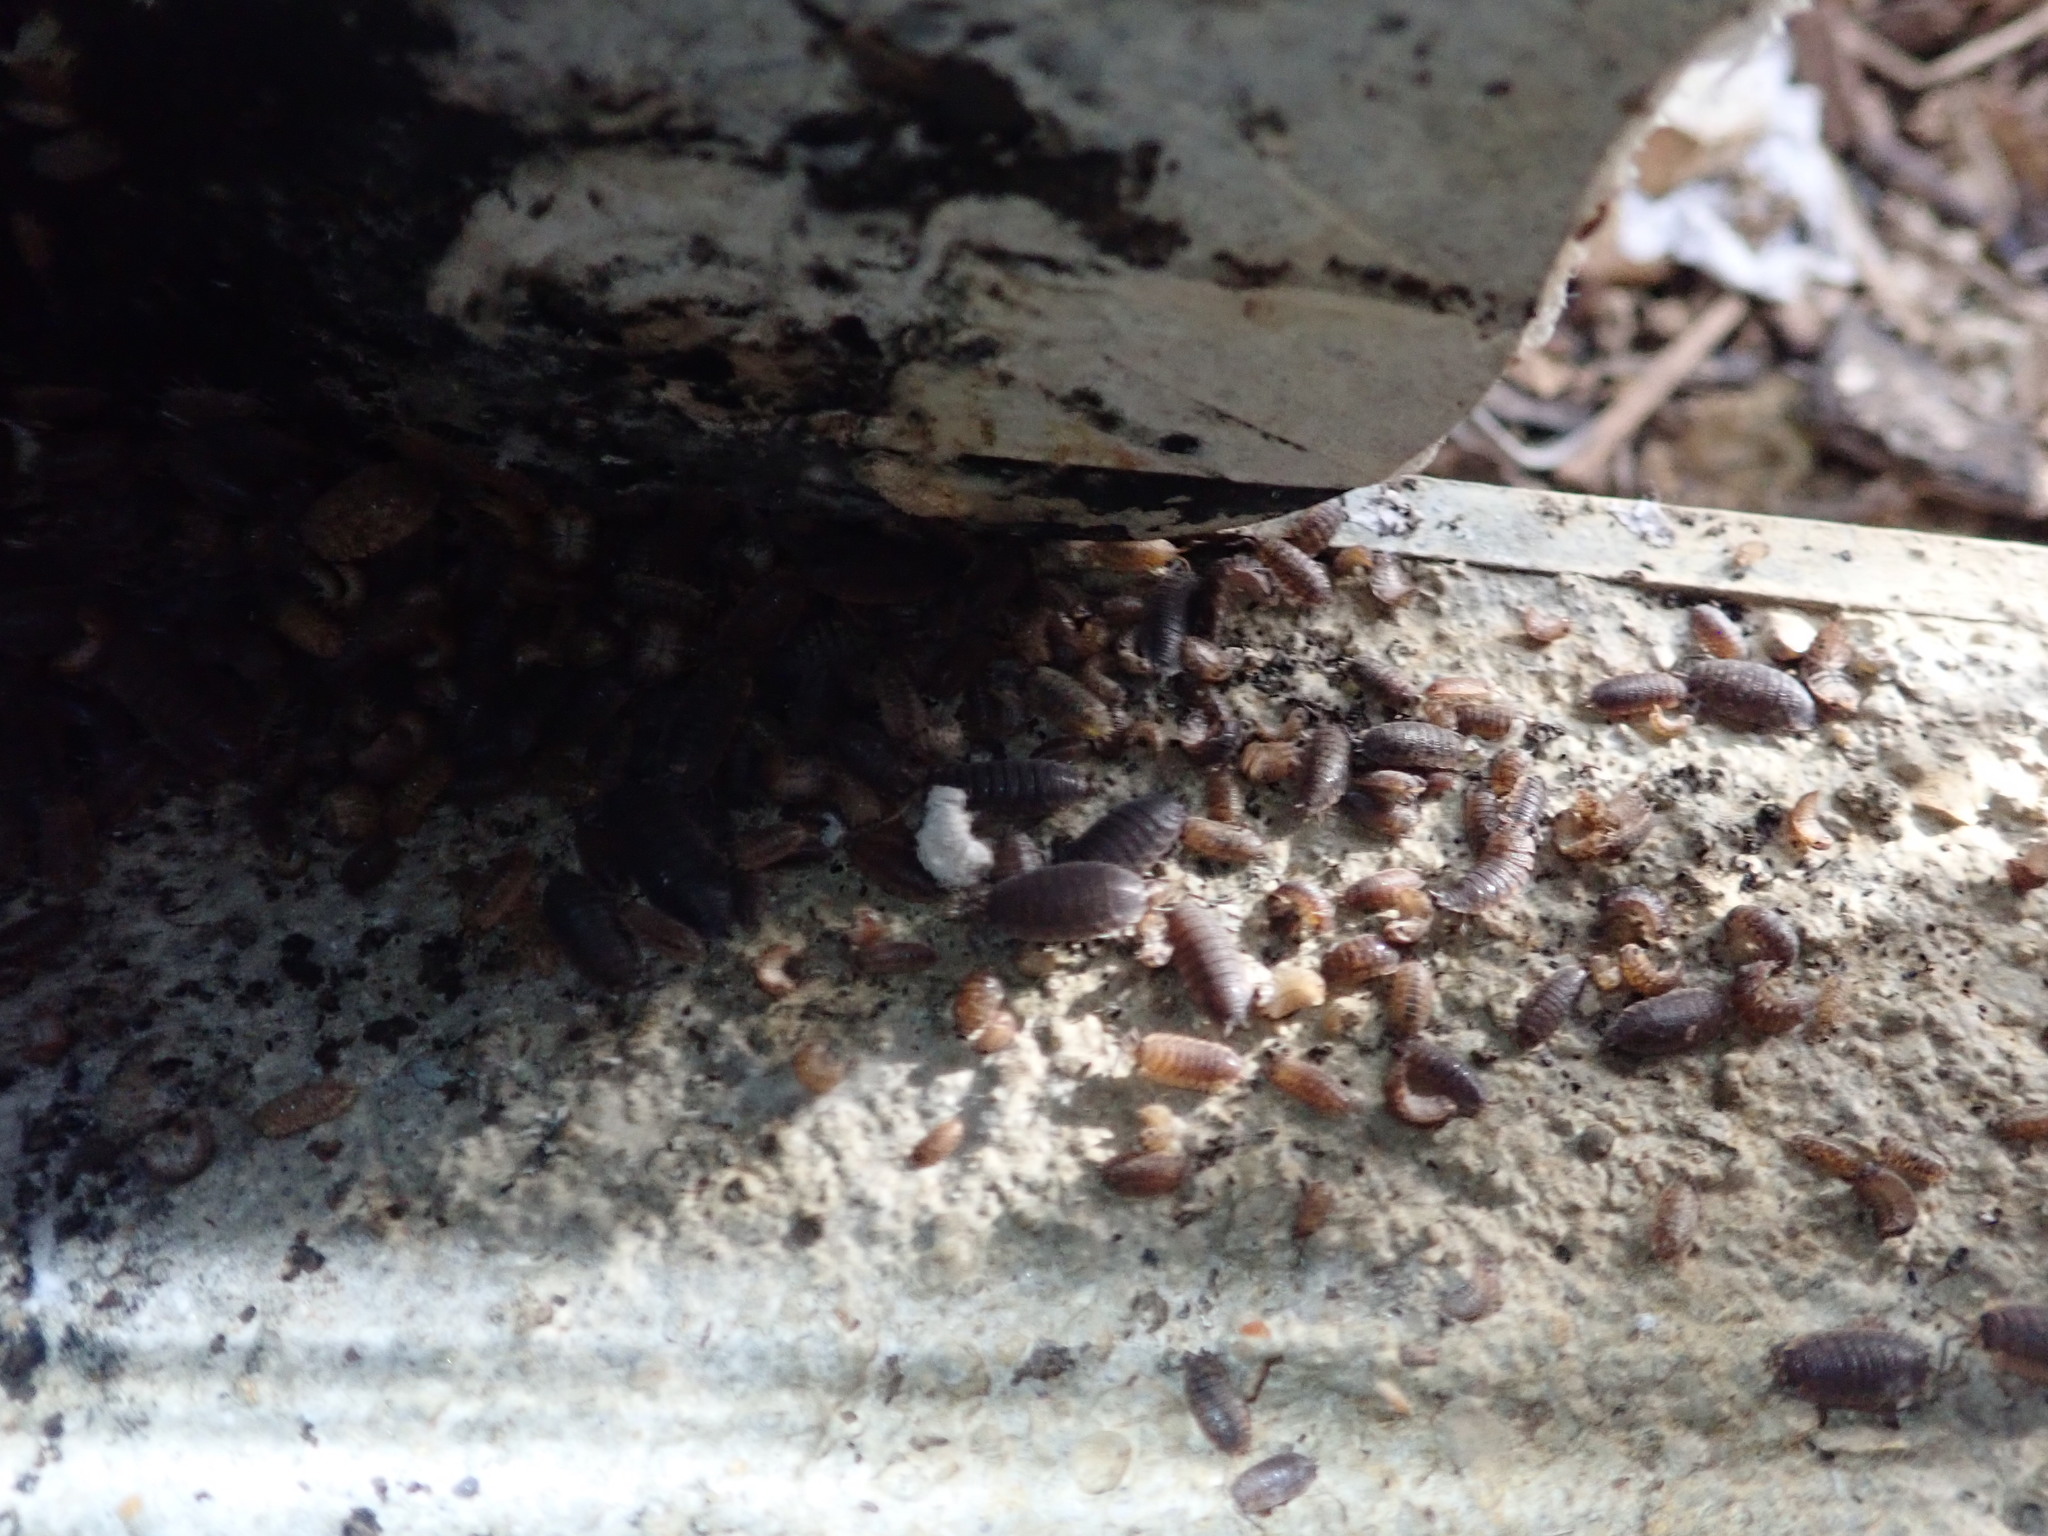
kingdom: Animalia
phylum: Arthropoda
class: Malacostraca
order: Isopoda
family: Porcellionidae
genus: Porcellio
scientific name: Porcellio scaber
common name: Common rough woodlouse
